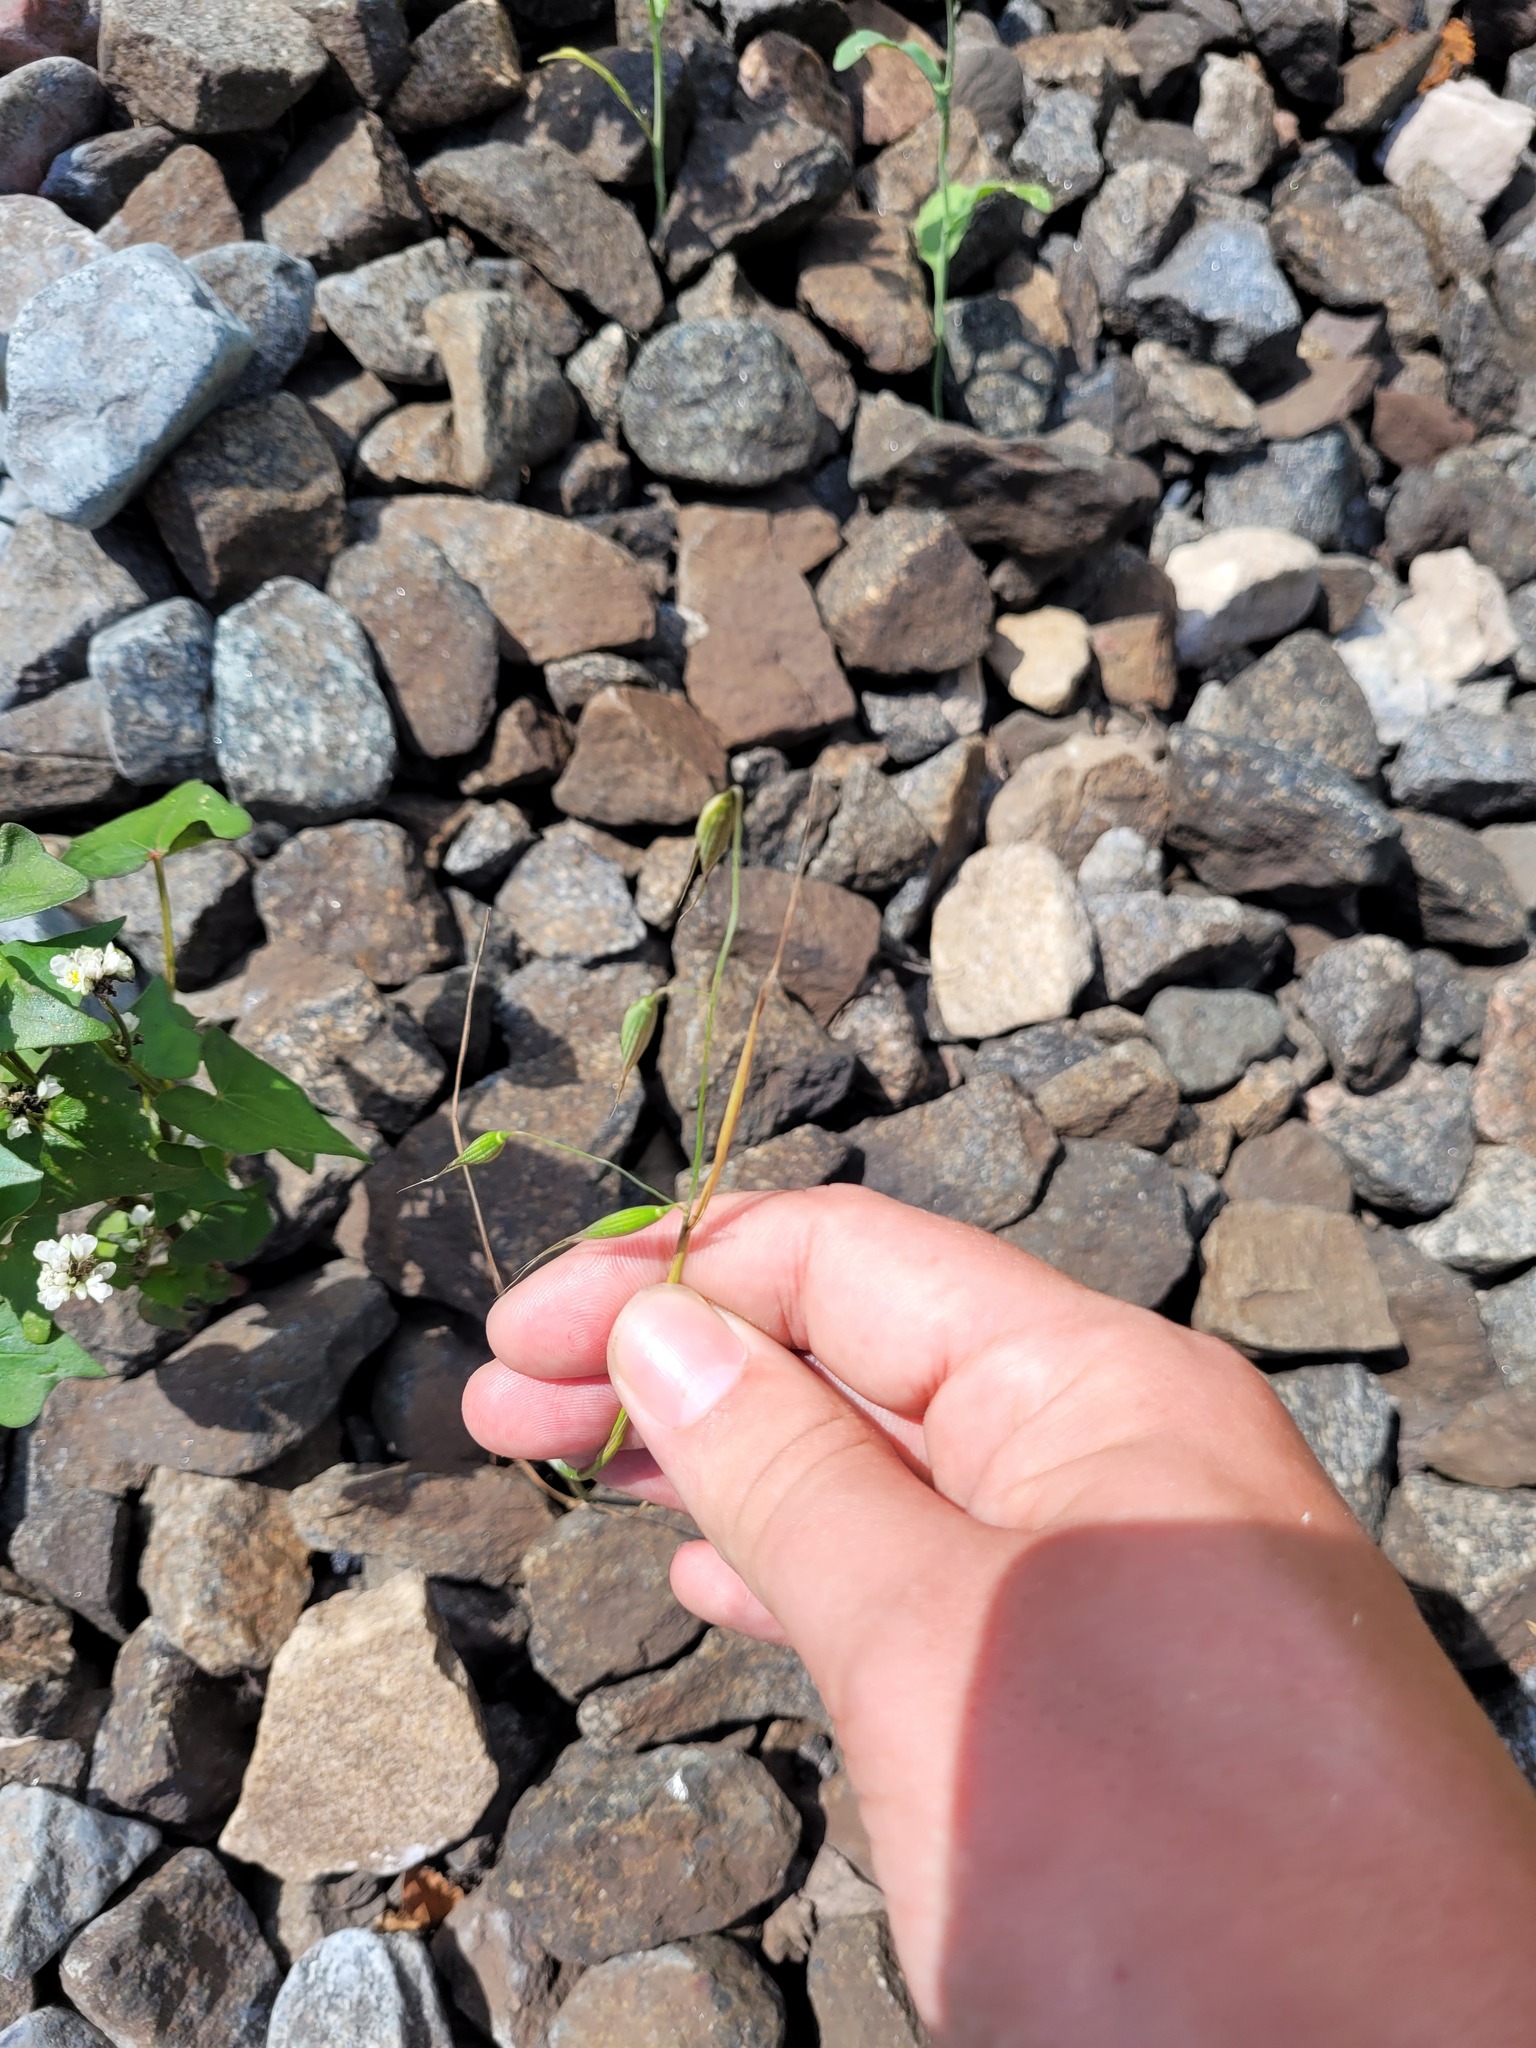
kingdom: Plantae
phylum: Tracheophyta
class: Liliopsida
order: Poales
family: Poaceae
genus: Avena
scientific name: Avena fatua
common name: Wild oat
